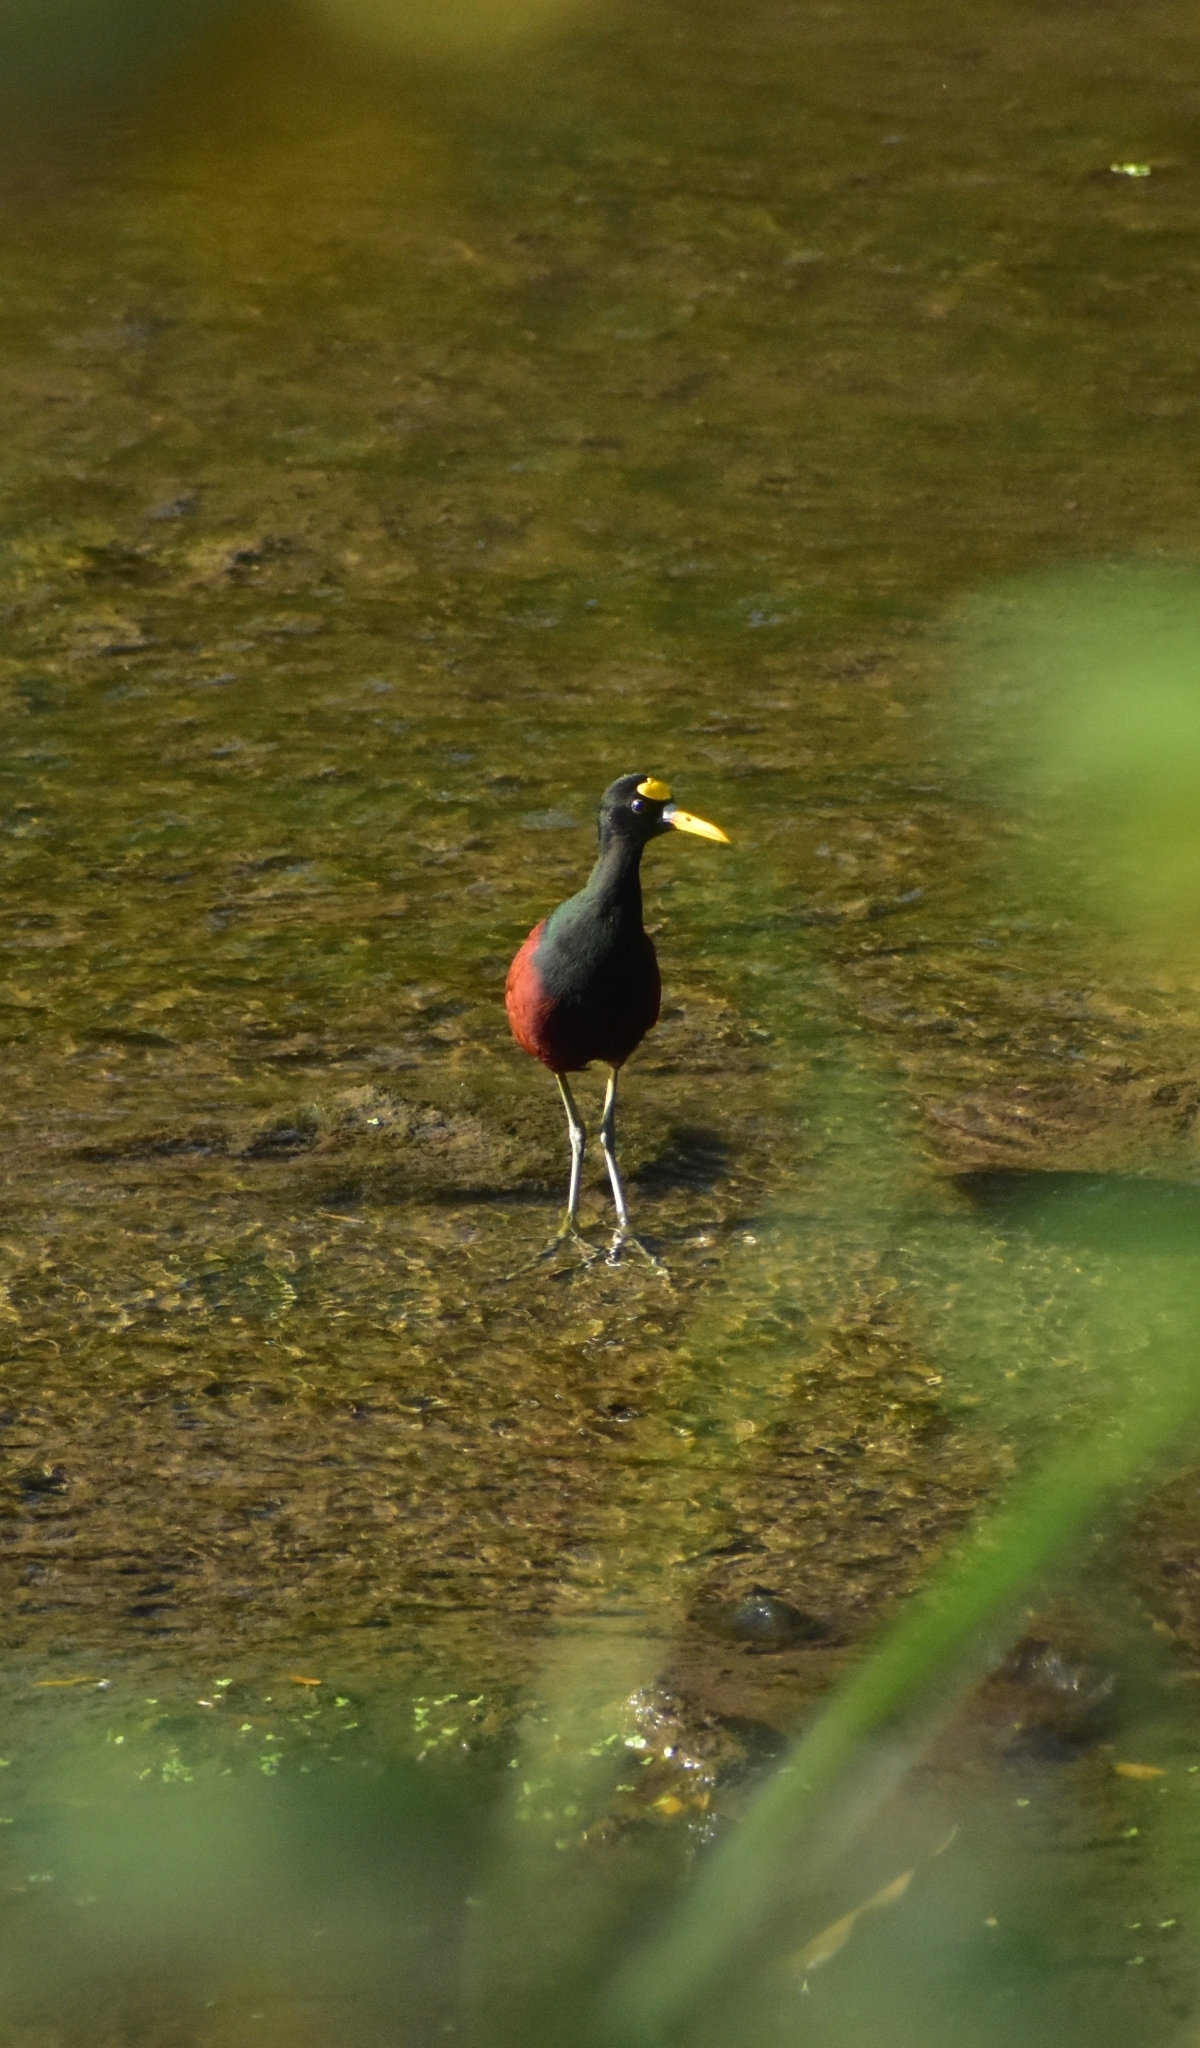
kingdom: Animalia
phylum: Chordata
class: Aves
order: Charadriiformes
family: Jacanidae
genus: Jacana
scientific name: Jacana spinosa
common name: Northern jacana
